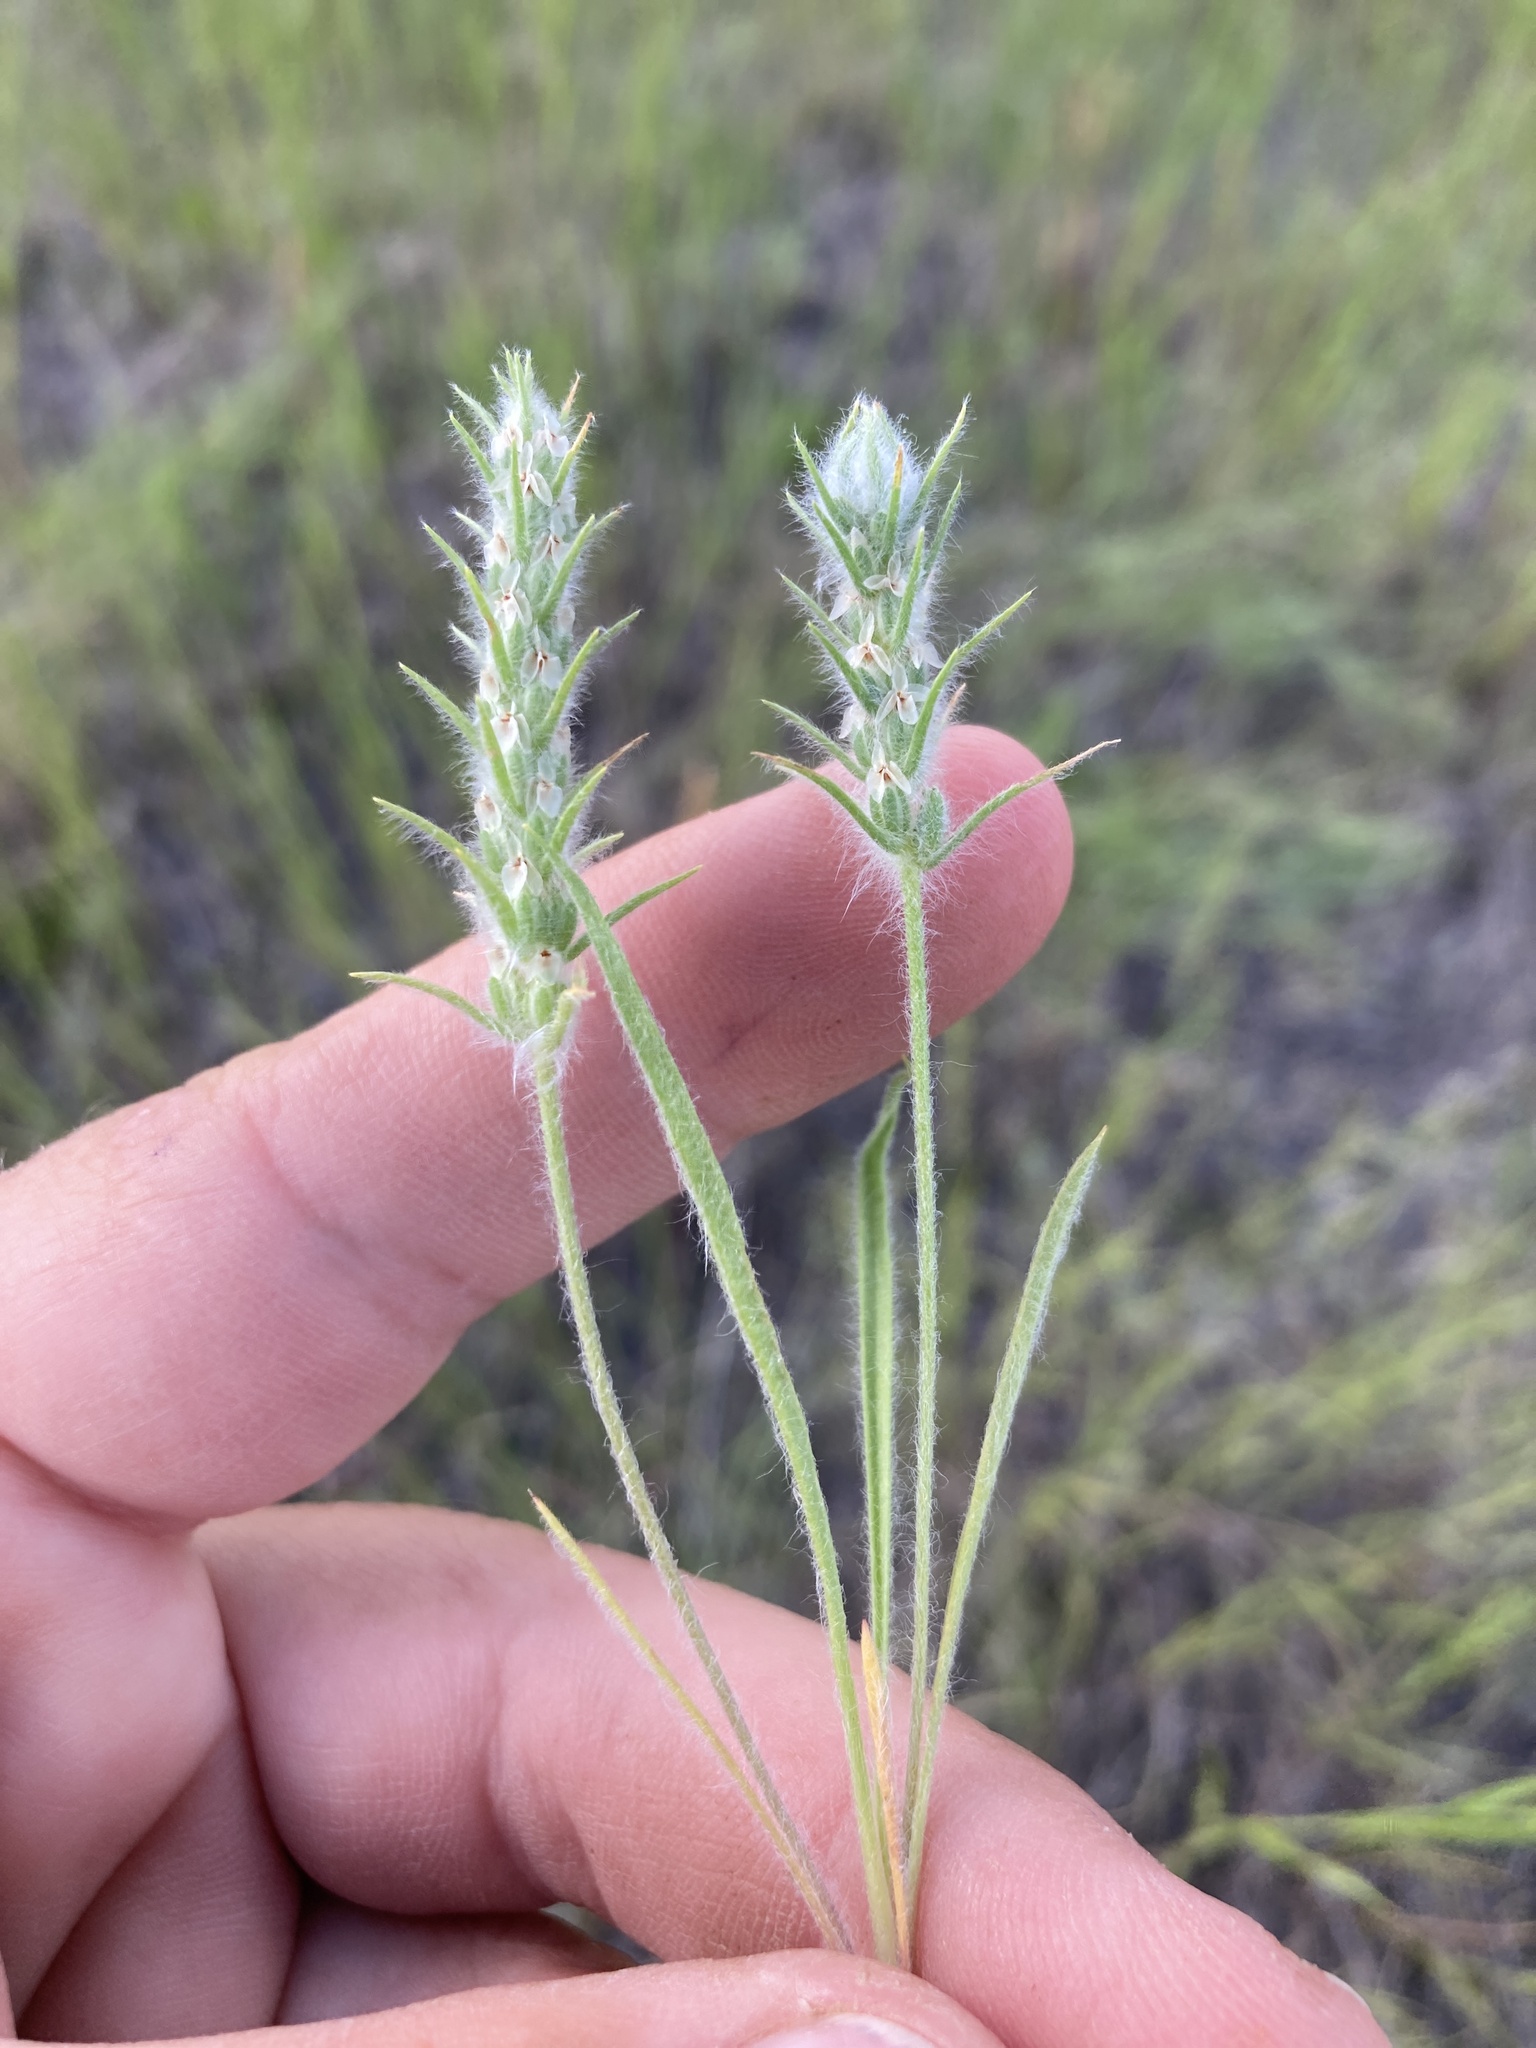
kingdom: Plantae
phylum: Tracheophyta
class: Magnoliopsida
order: Lamiales
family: Plantaginaceae
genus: Plantago
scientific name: Plantago patagonica
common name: Patagonia indian-wheat
